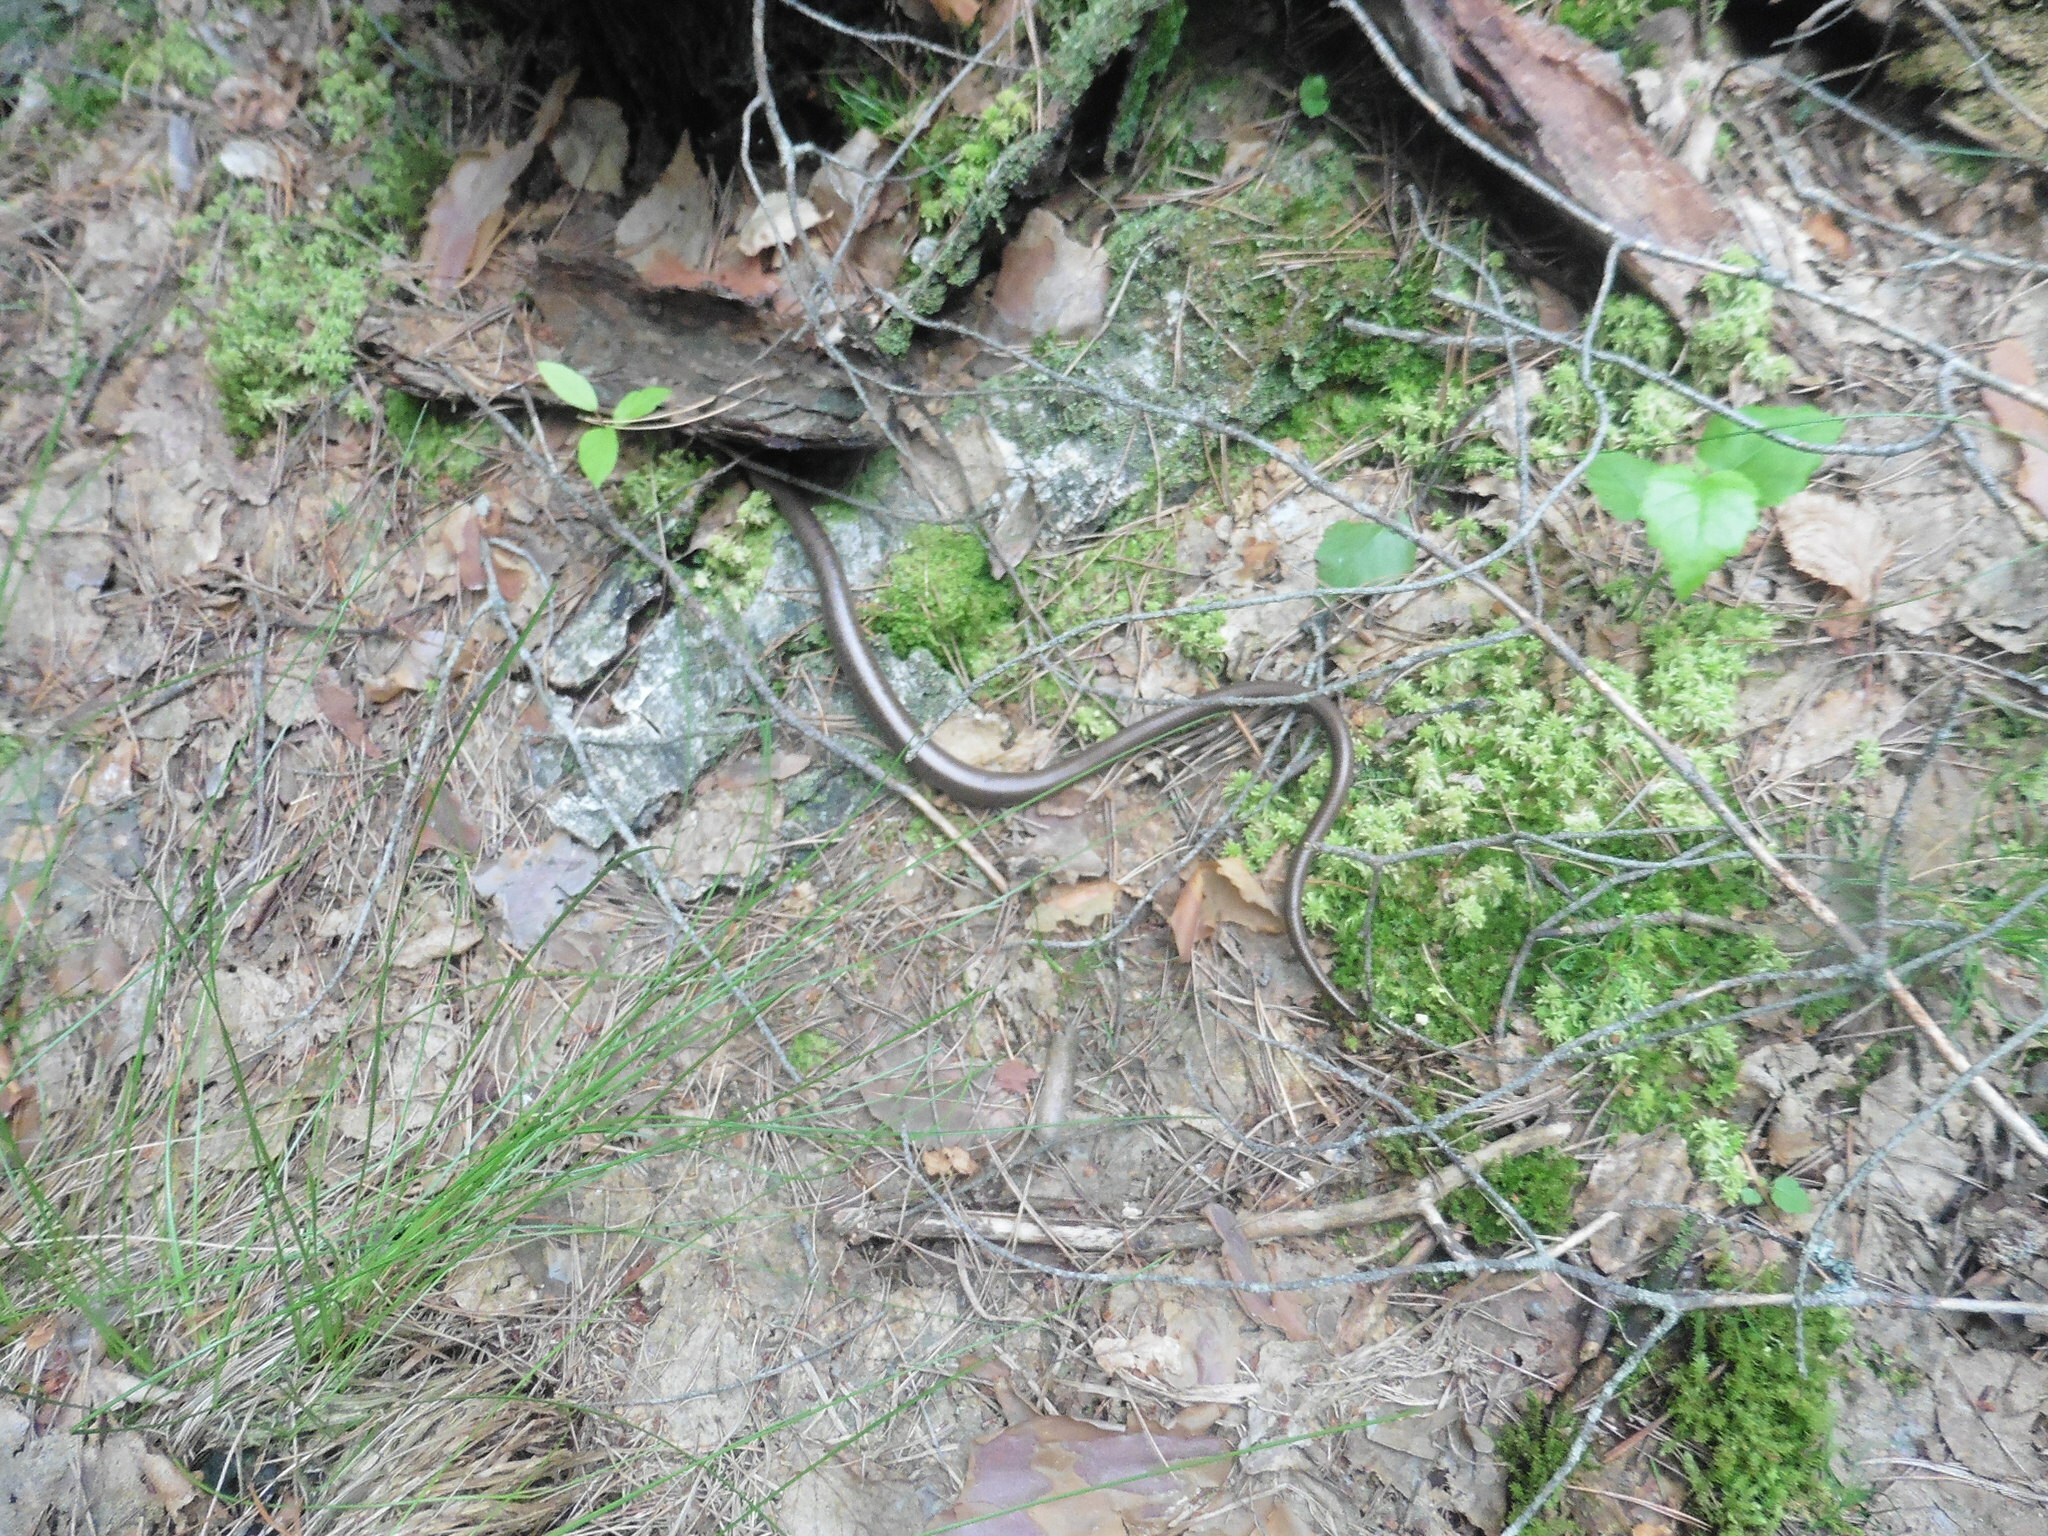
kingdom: Animalia
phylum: Chordata
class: Squamata
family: Anguidae
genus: Anguis
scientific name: Anguis colchica
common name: Slow worm
